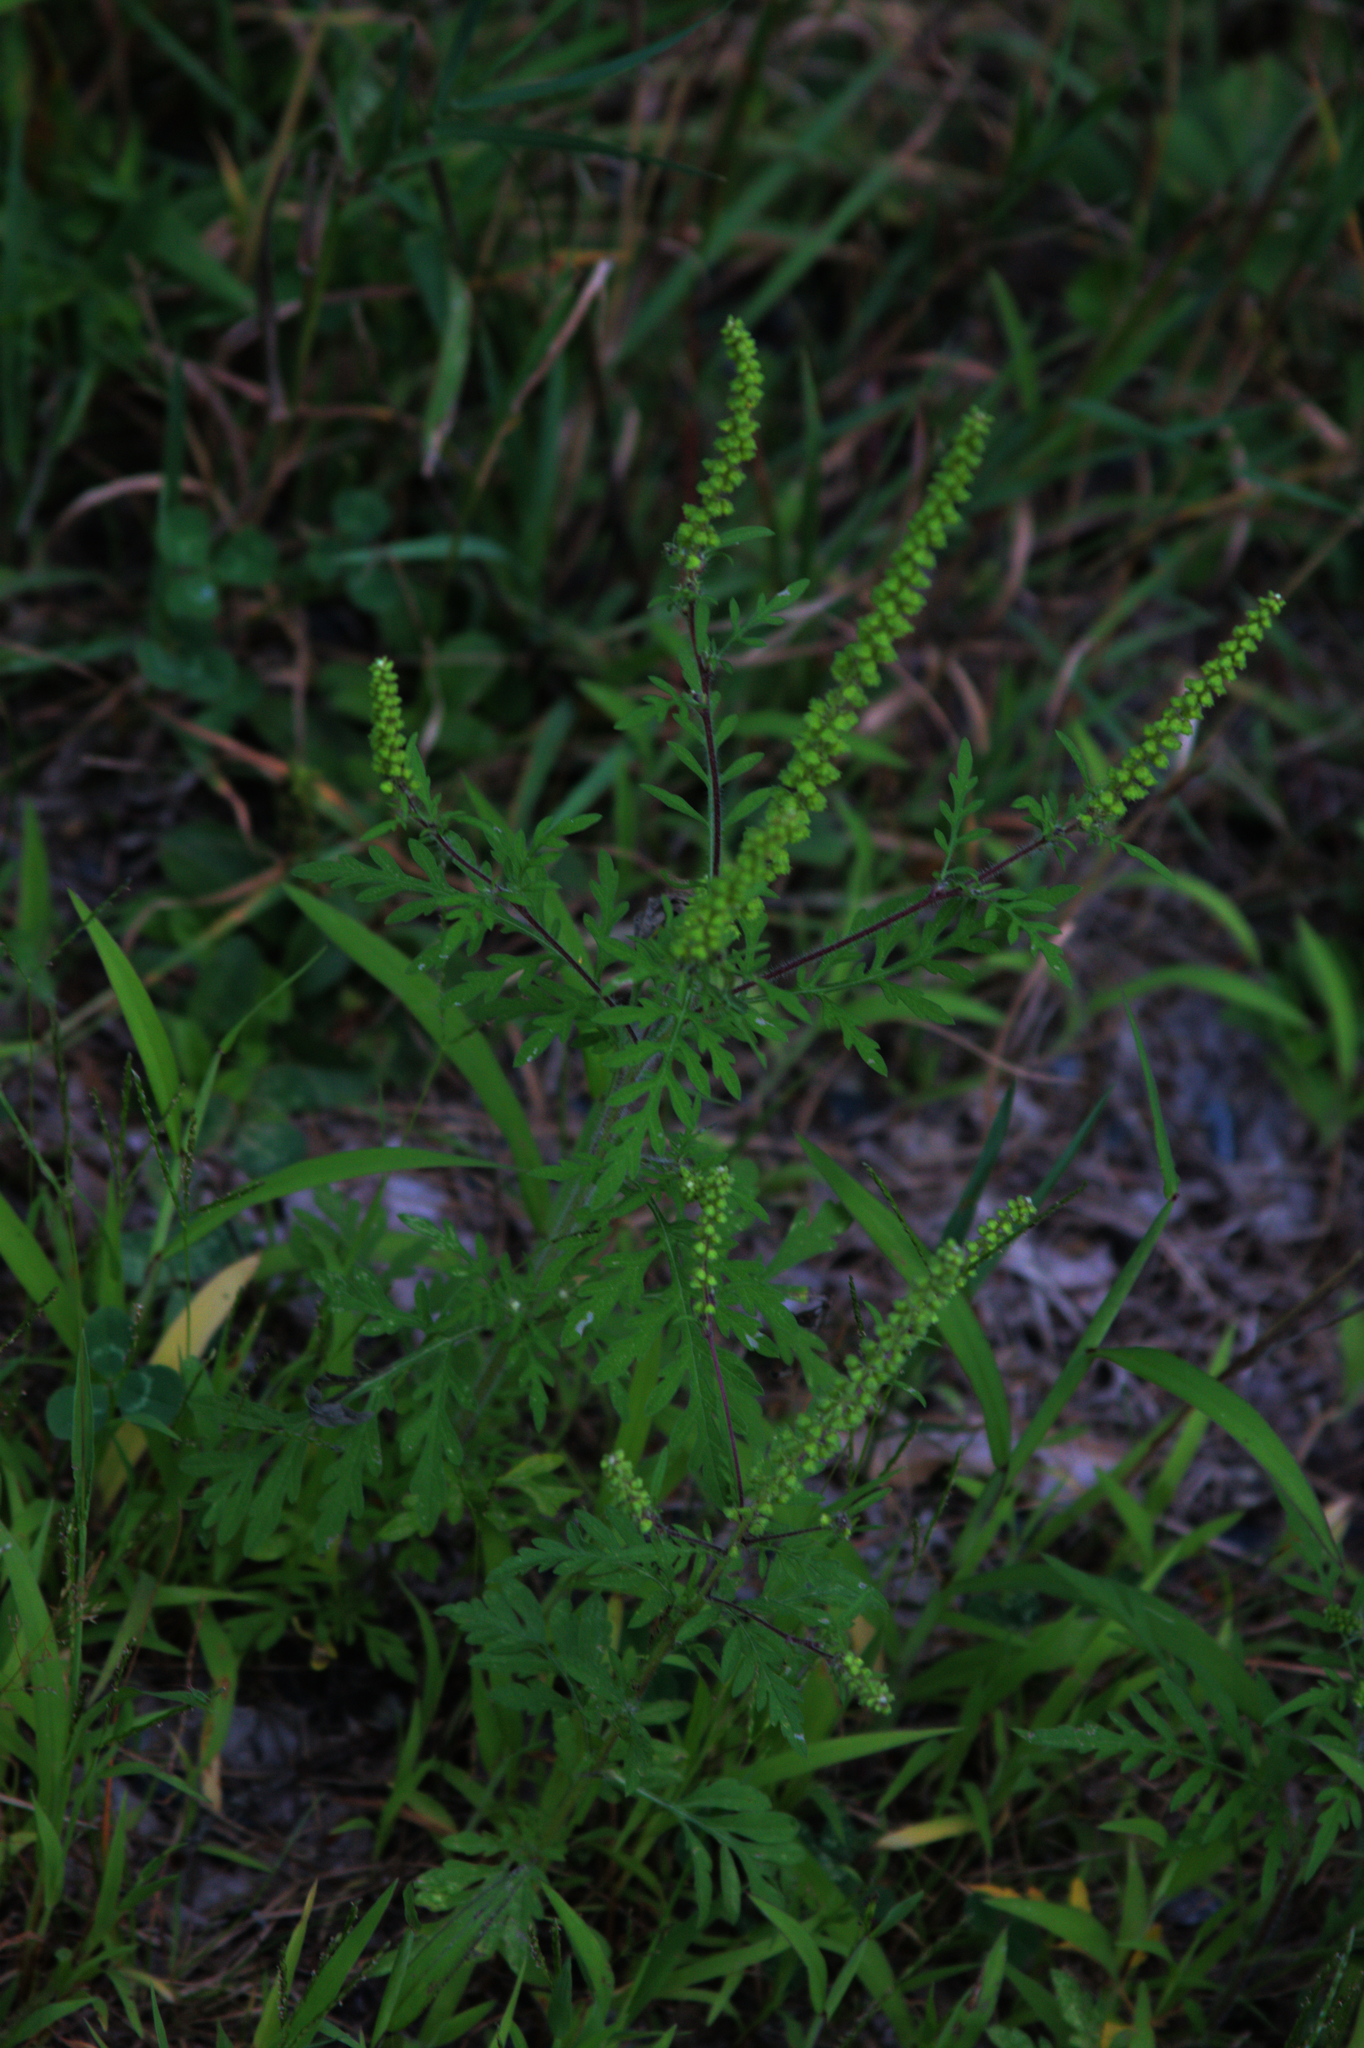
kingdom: Plantae
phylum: Tracheophyta
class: Magnoliopsida
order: Asterales
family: Asteraceae
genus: Ambrosia
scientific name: Ambrosia artemisiifolia
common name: Annual ragweed
